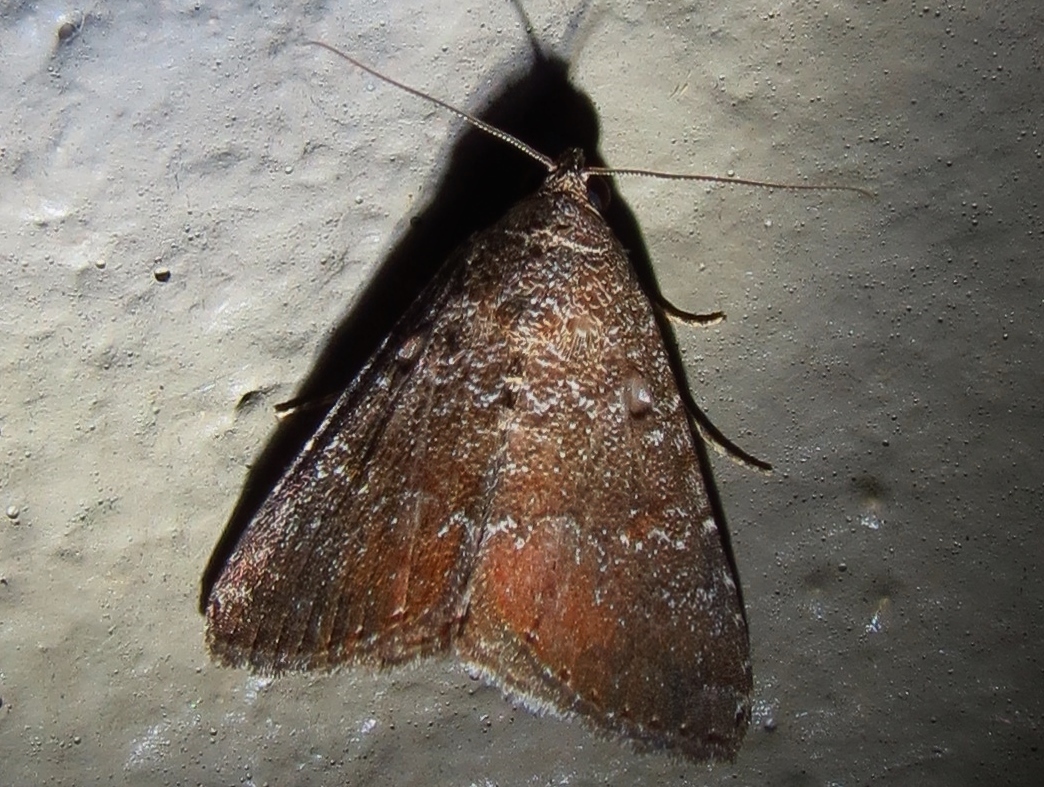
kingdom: Animalia
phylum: Arthropoda
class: Insecta
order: Lepidoptera
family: Noctuidae
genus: Amyna
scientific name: Amyna stricta
